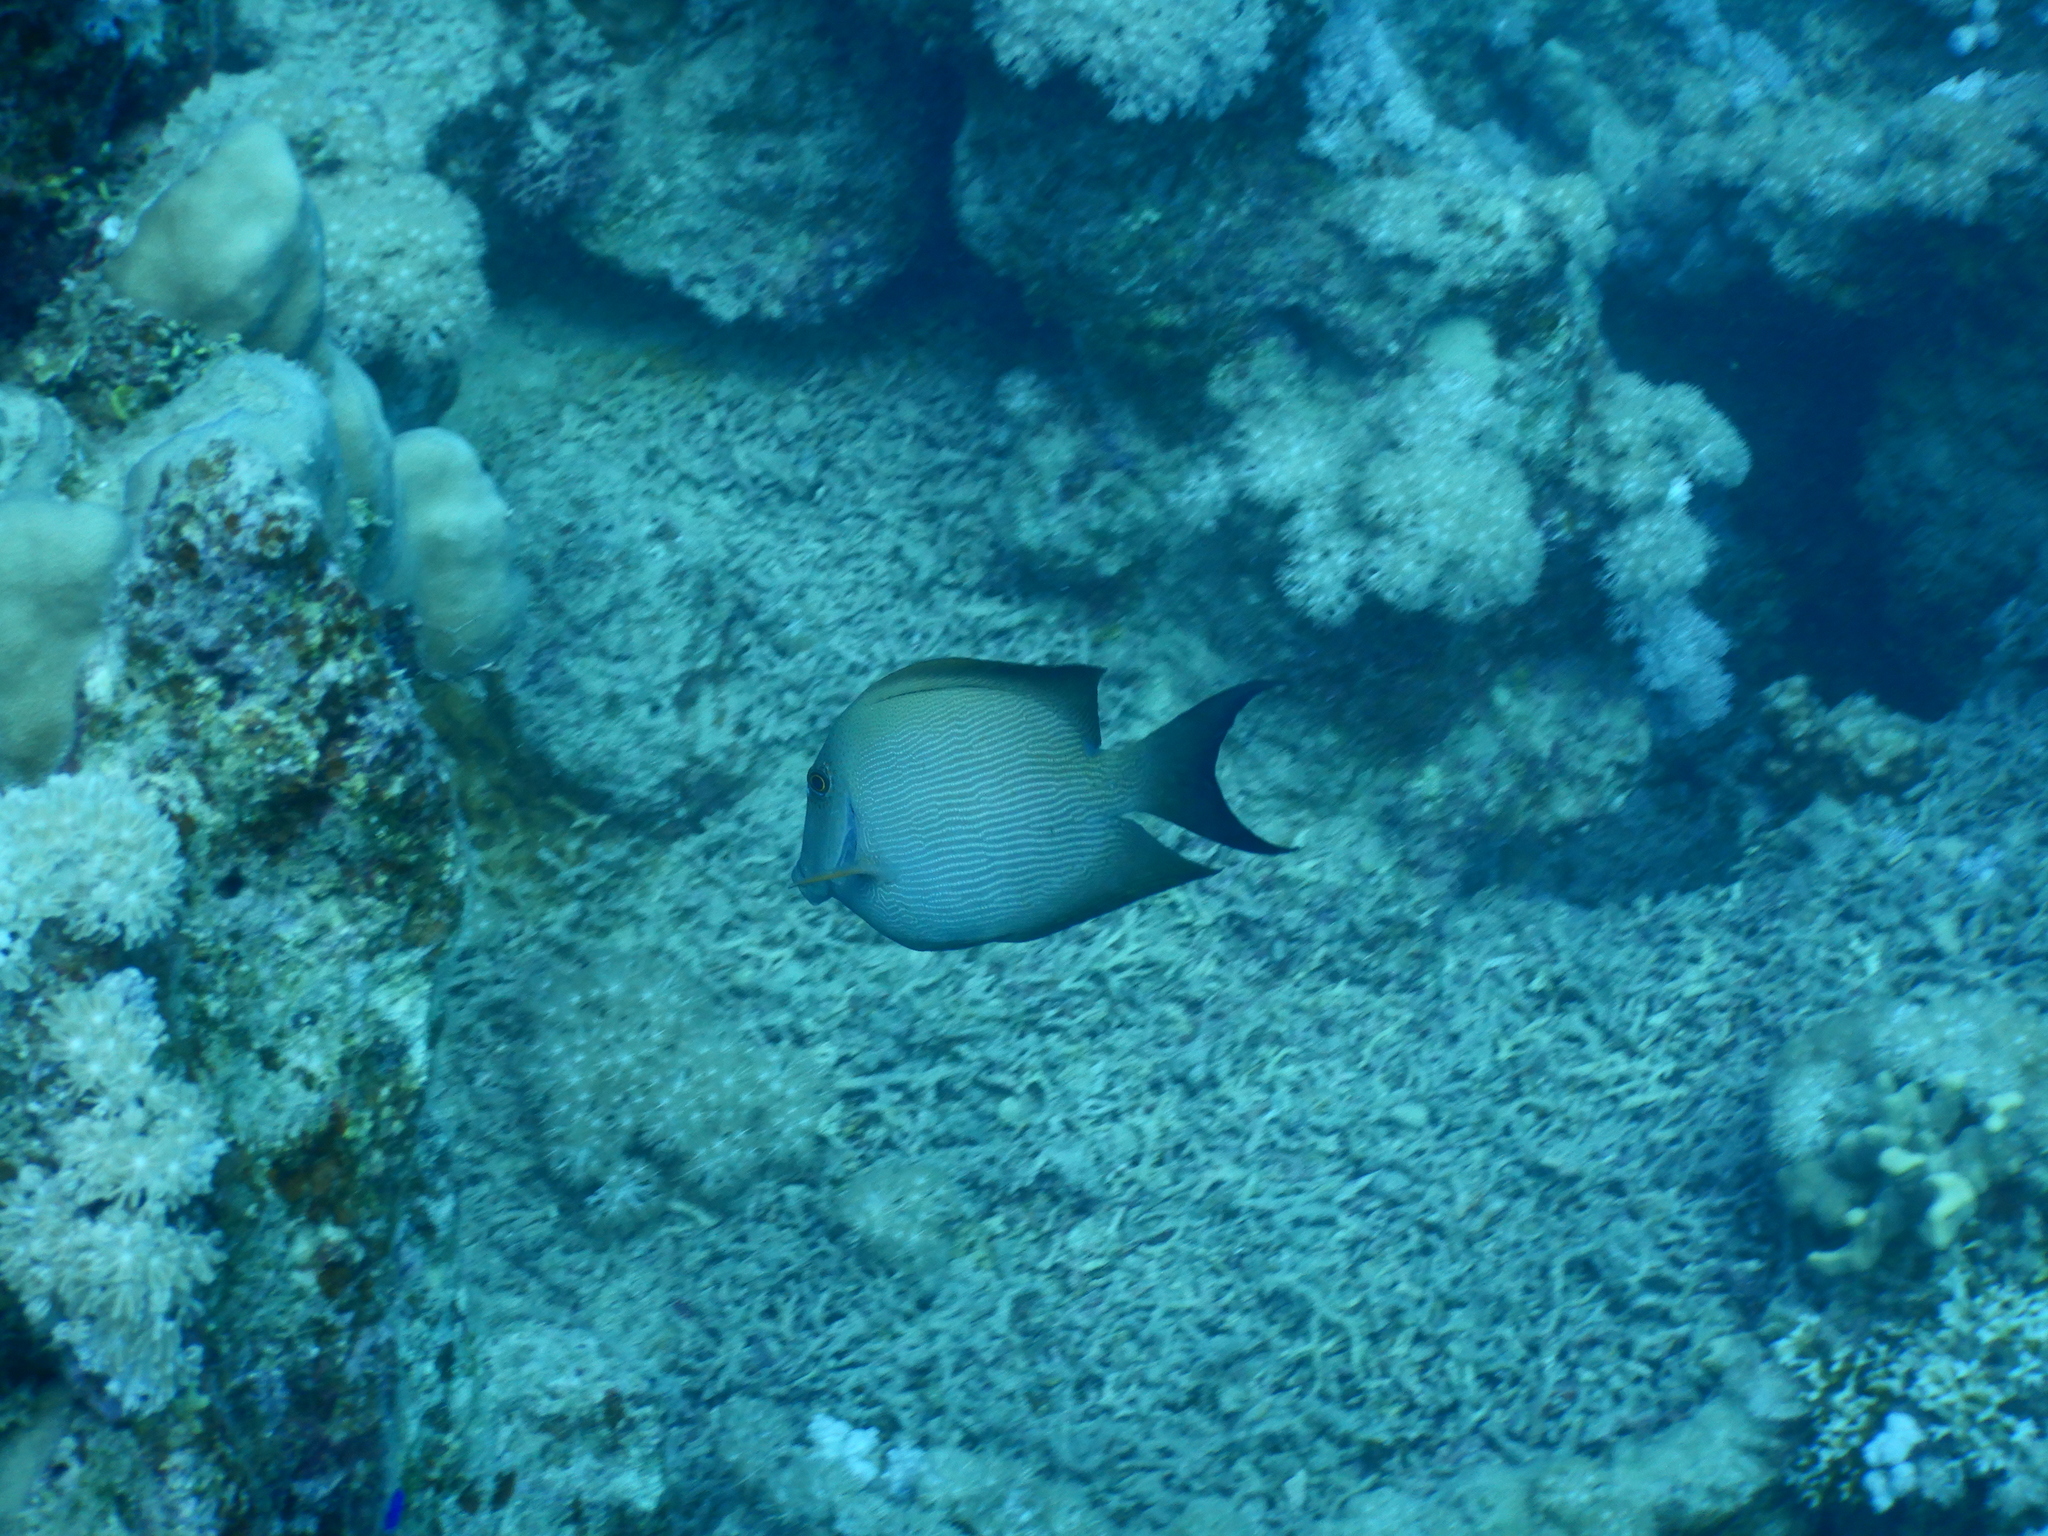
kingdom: Animalia
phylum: Chordata
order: Perciformes
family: Acanthuridae
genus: Ctenochaetus
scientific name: Ctenochaetus striatus
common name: Bristle-toothed surgeonfish
